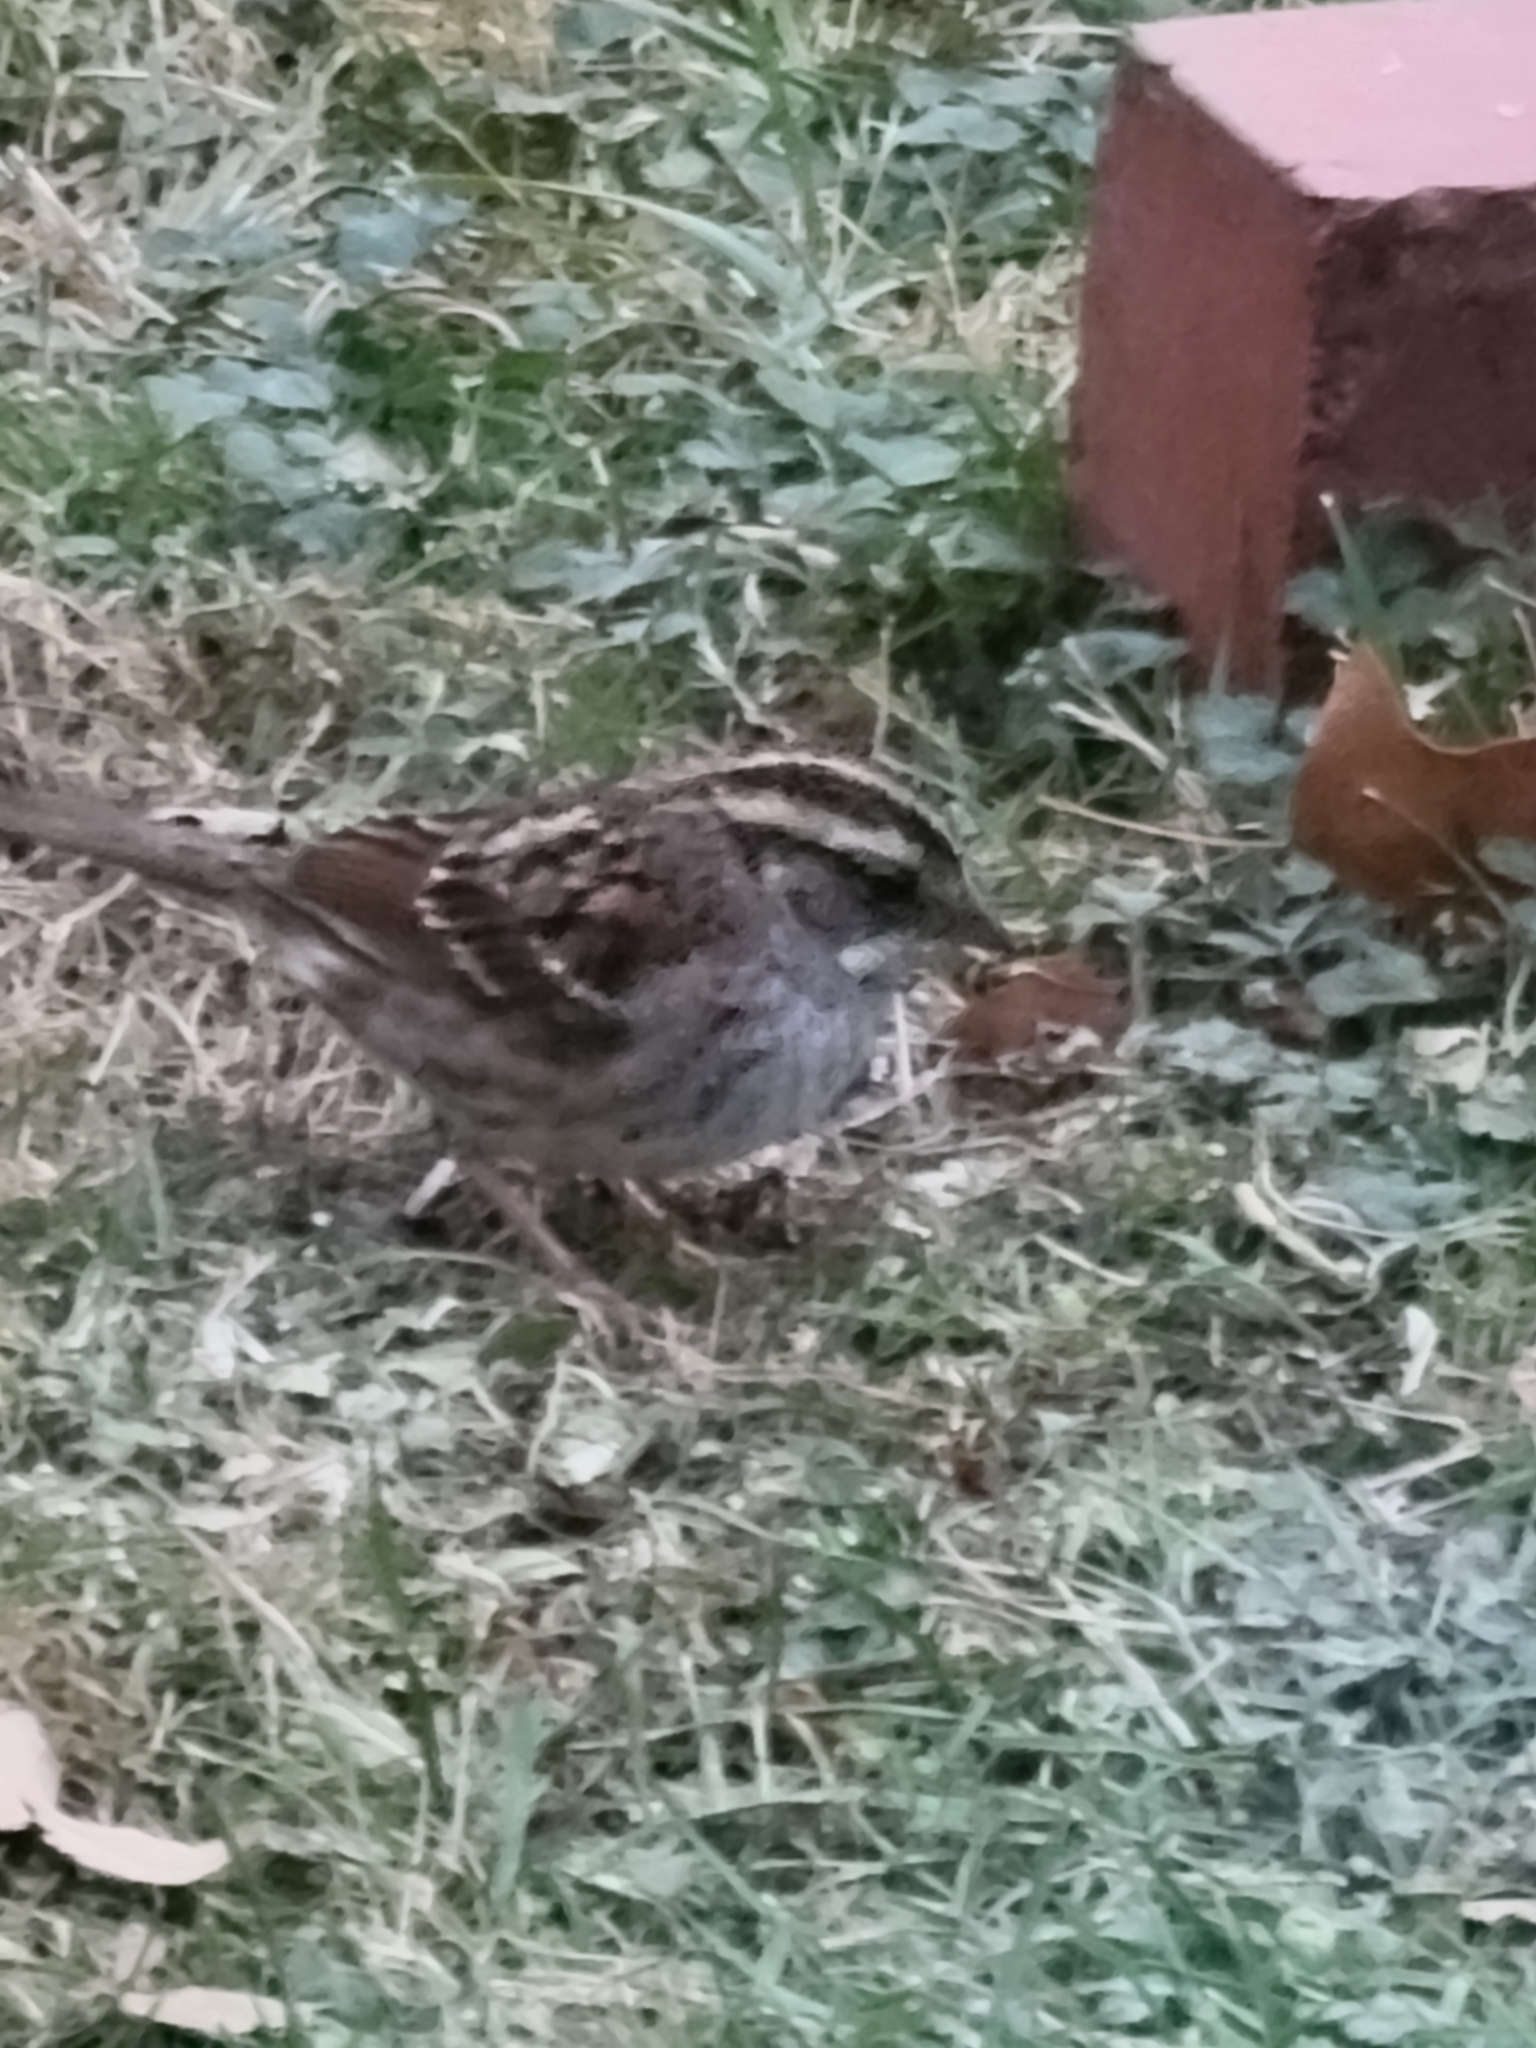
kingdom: Animalia
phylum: Chordata
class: Aves
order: Passeriformes
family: Passerellidae
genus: Zonotrichia
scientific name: Zonotrichia albicollis
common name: White-throated sparrow
